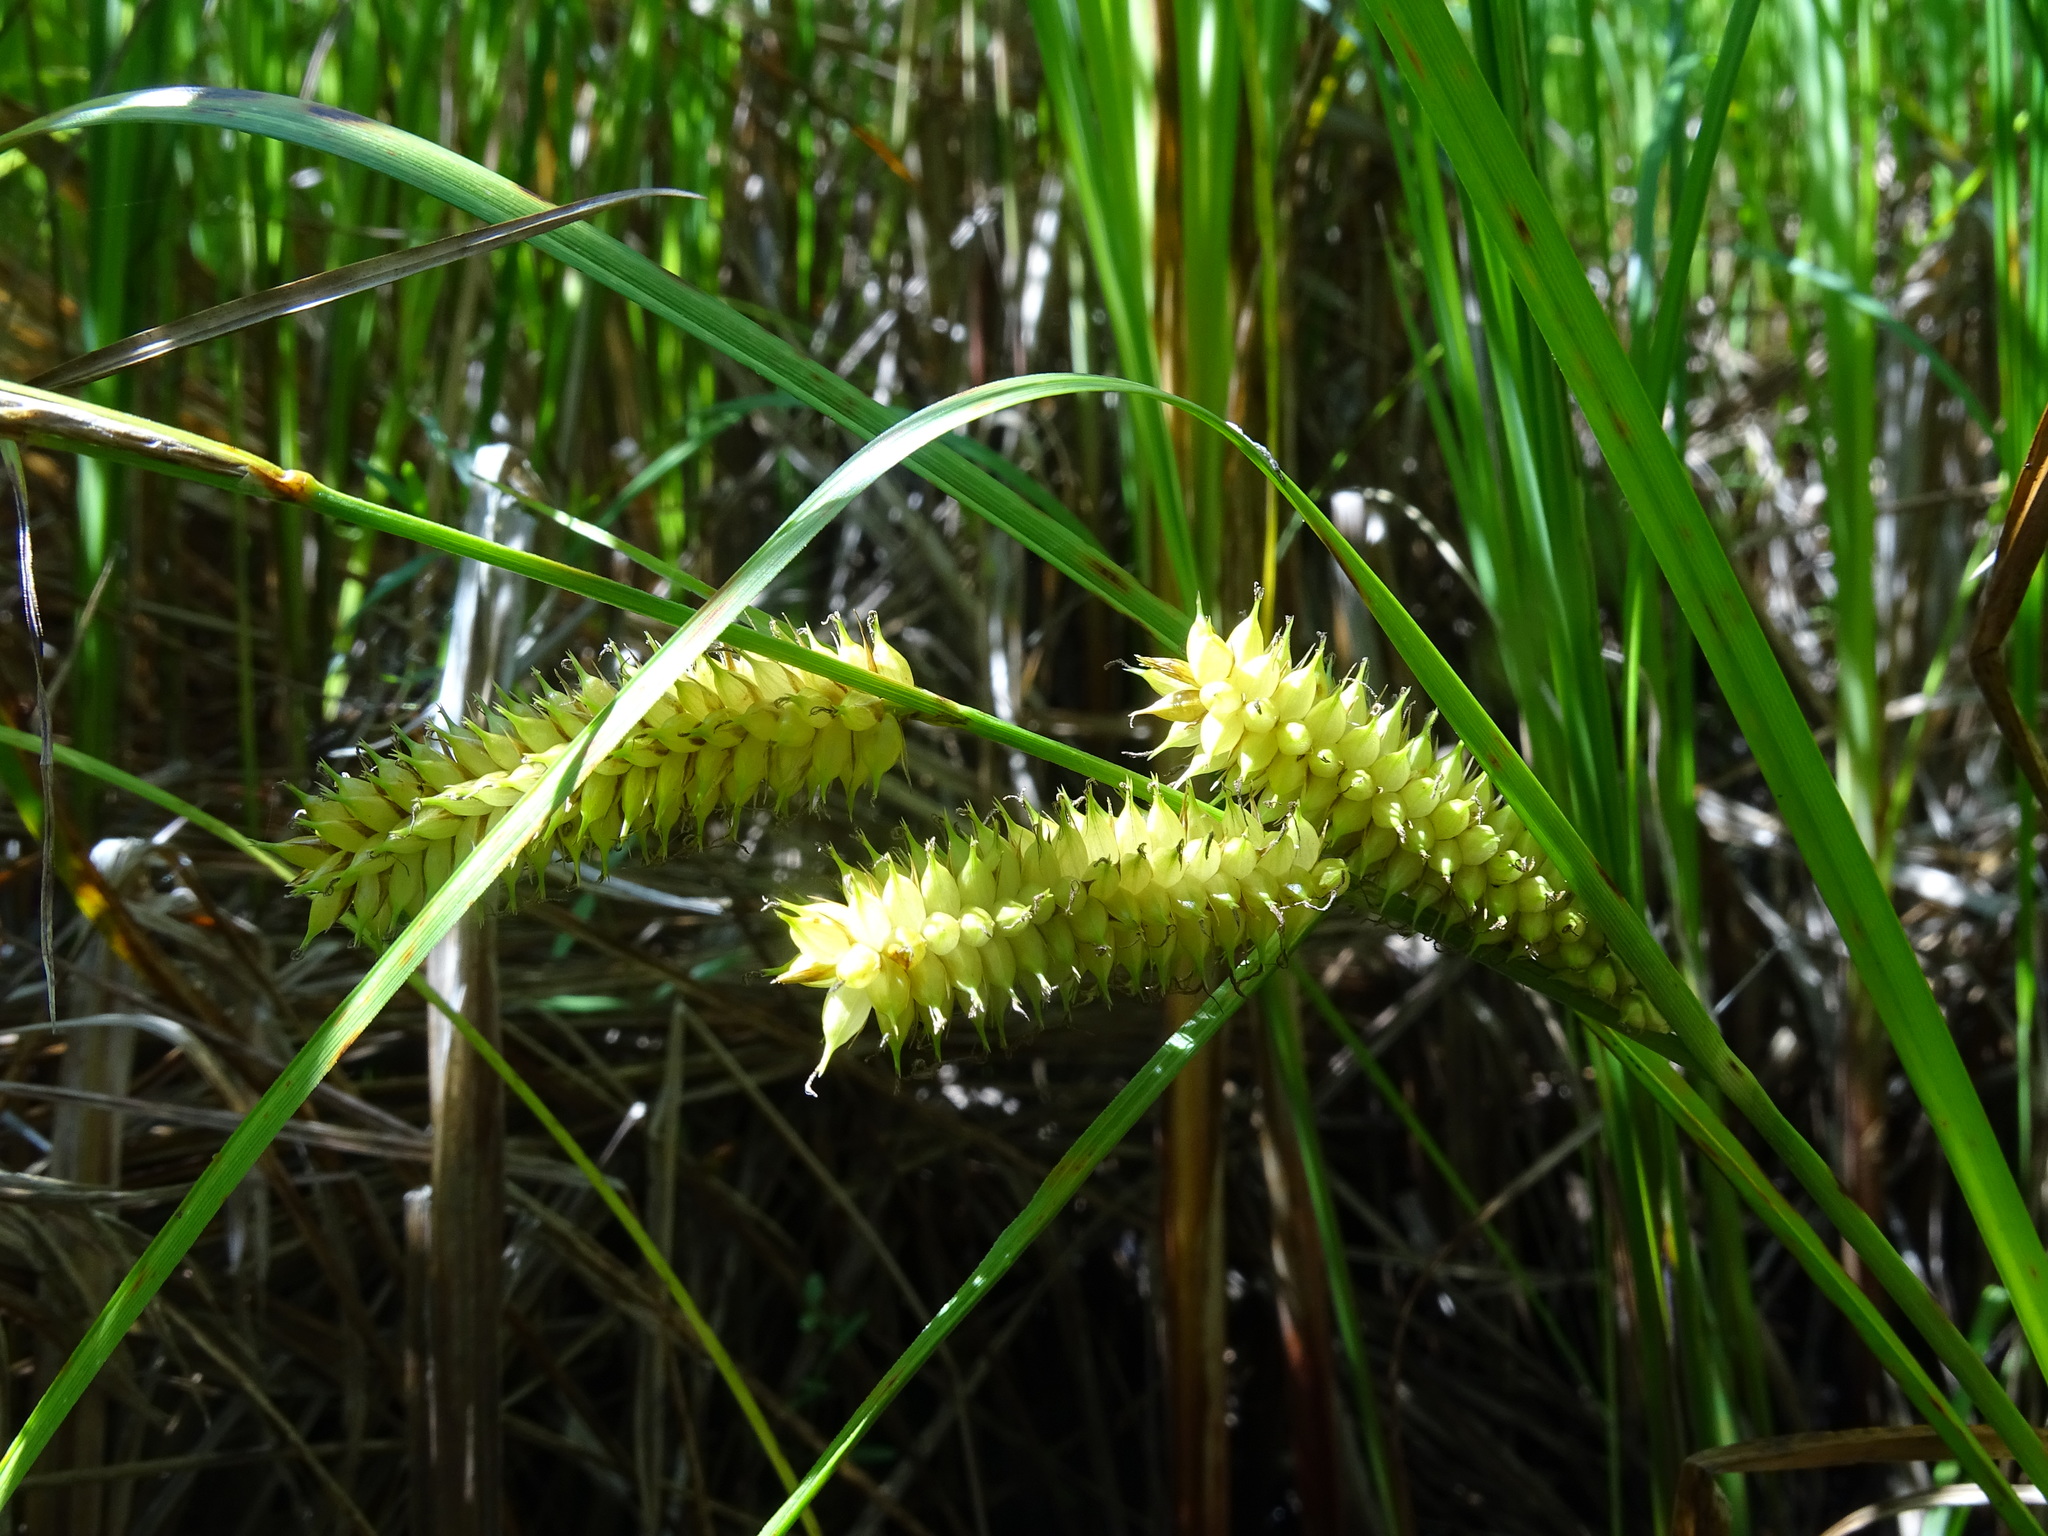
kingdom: Plantae
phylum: Tracheophyta
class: Liliopsida
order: Poales
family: Cyperaceae
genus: Carex
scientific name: Carex utriculata
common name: Beaked sedge
